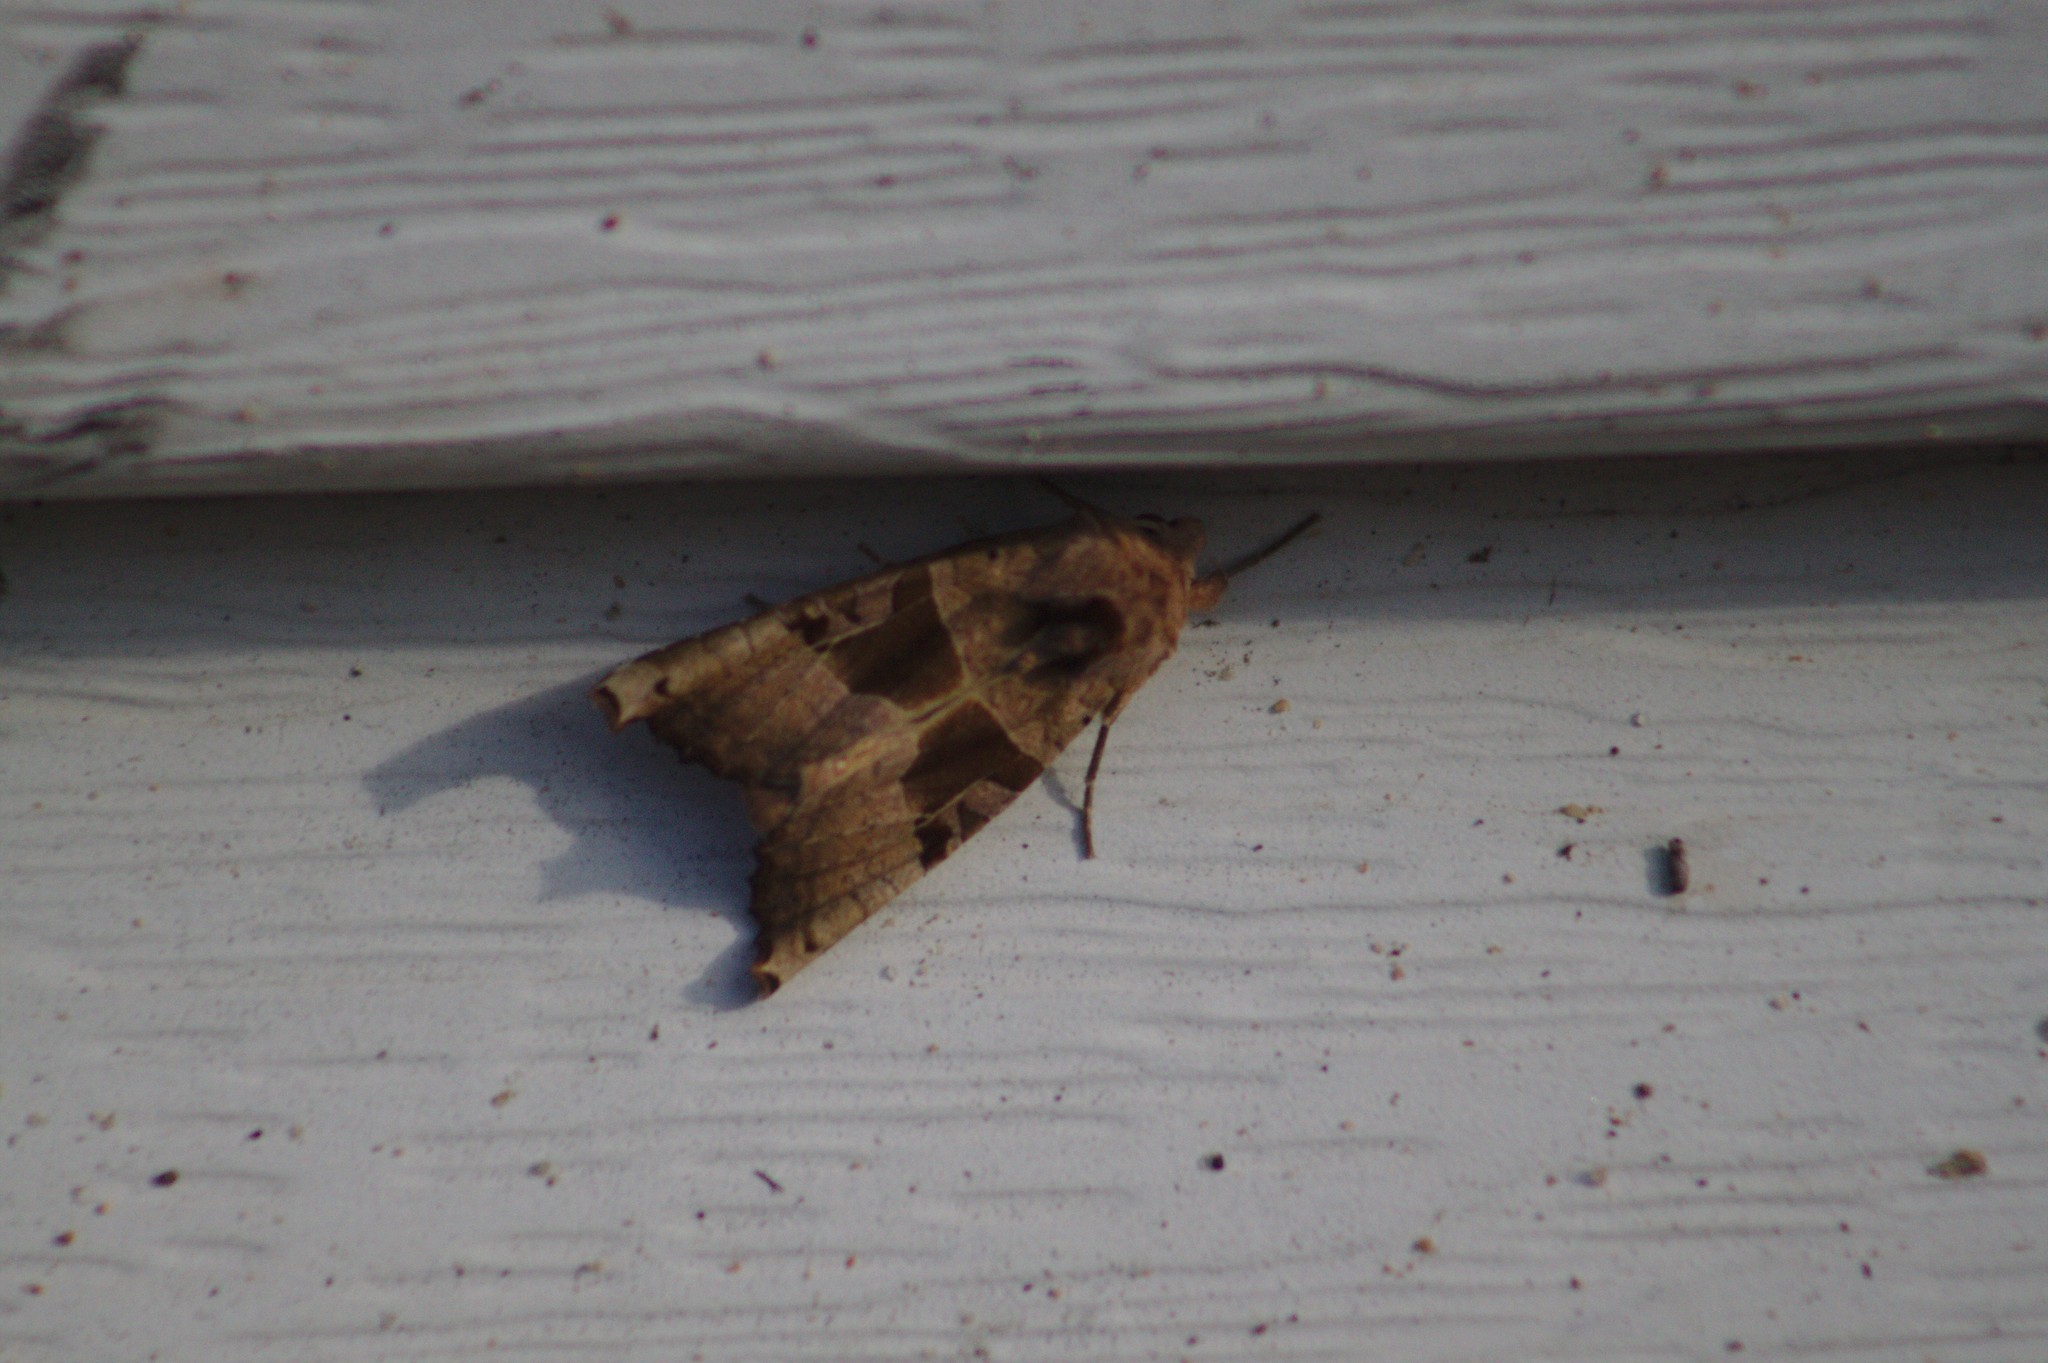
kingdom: Animalia
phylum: Arthropoda
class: Insecta
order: Lepidoptera
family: Noctuidae
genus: Phlogophora
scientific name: Phlogophora periculosa
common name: Brown angle shades
